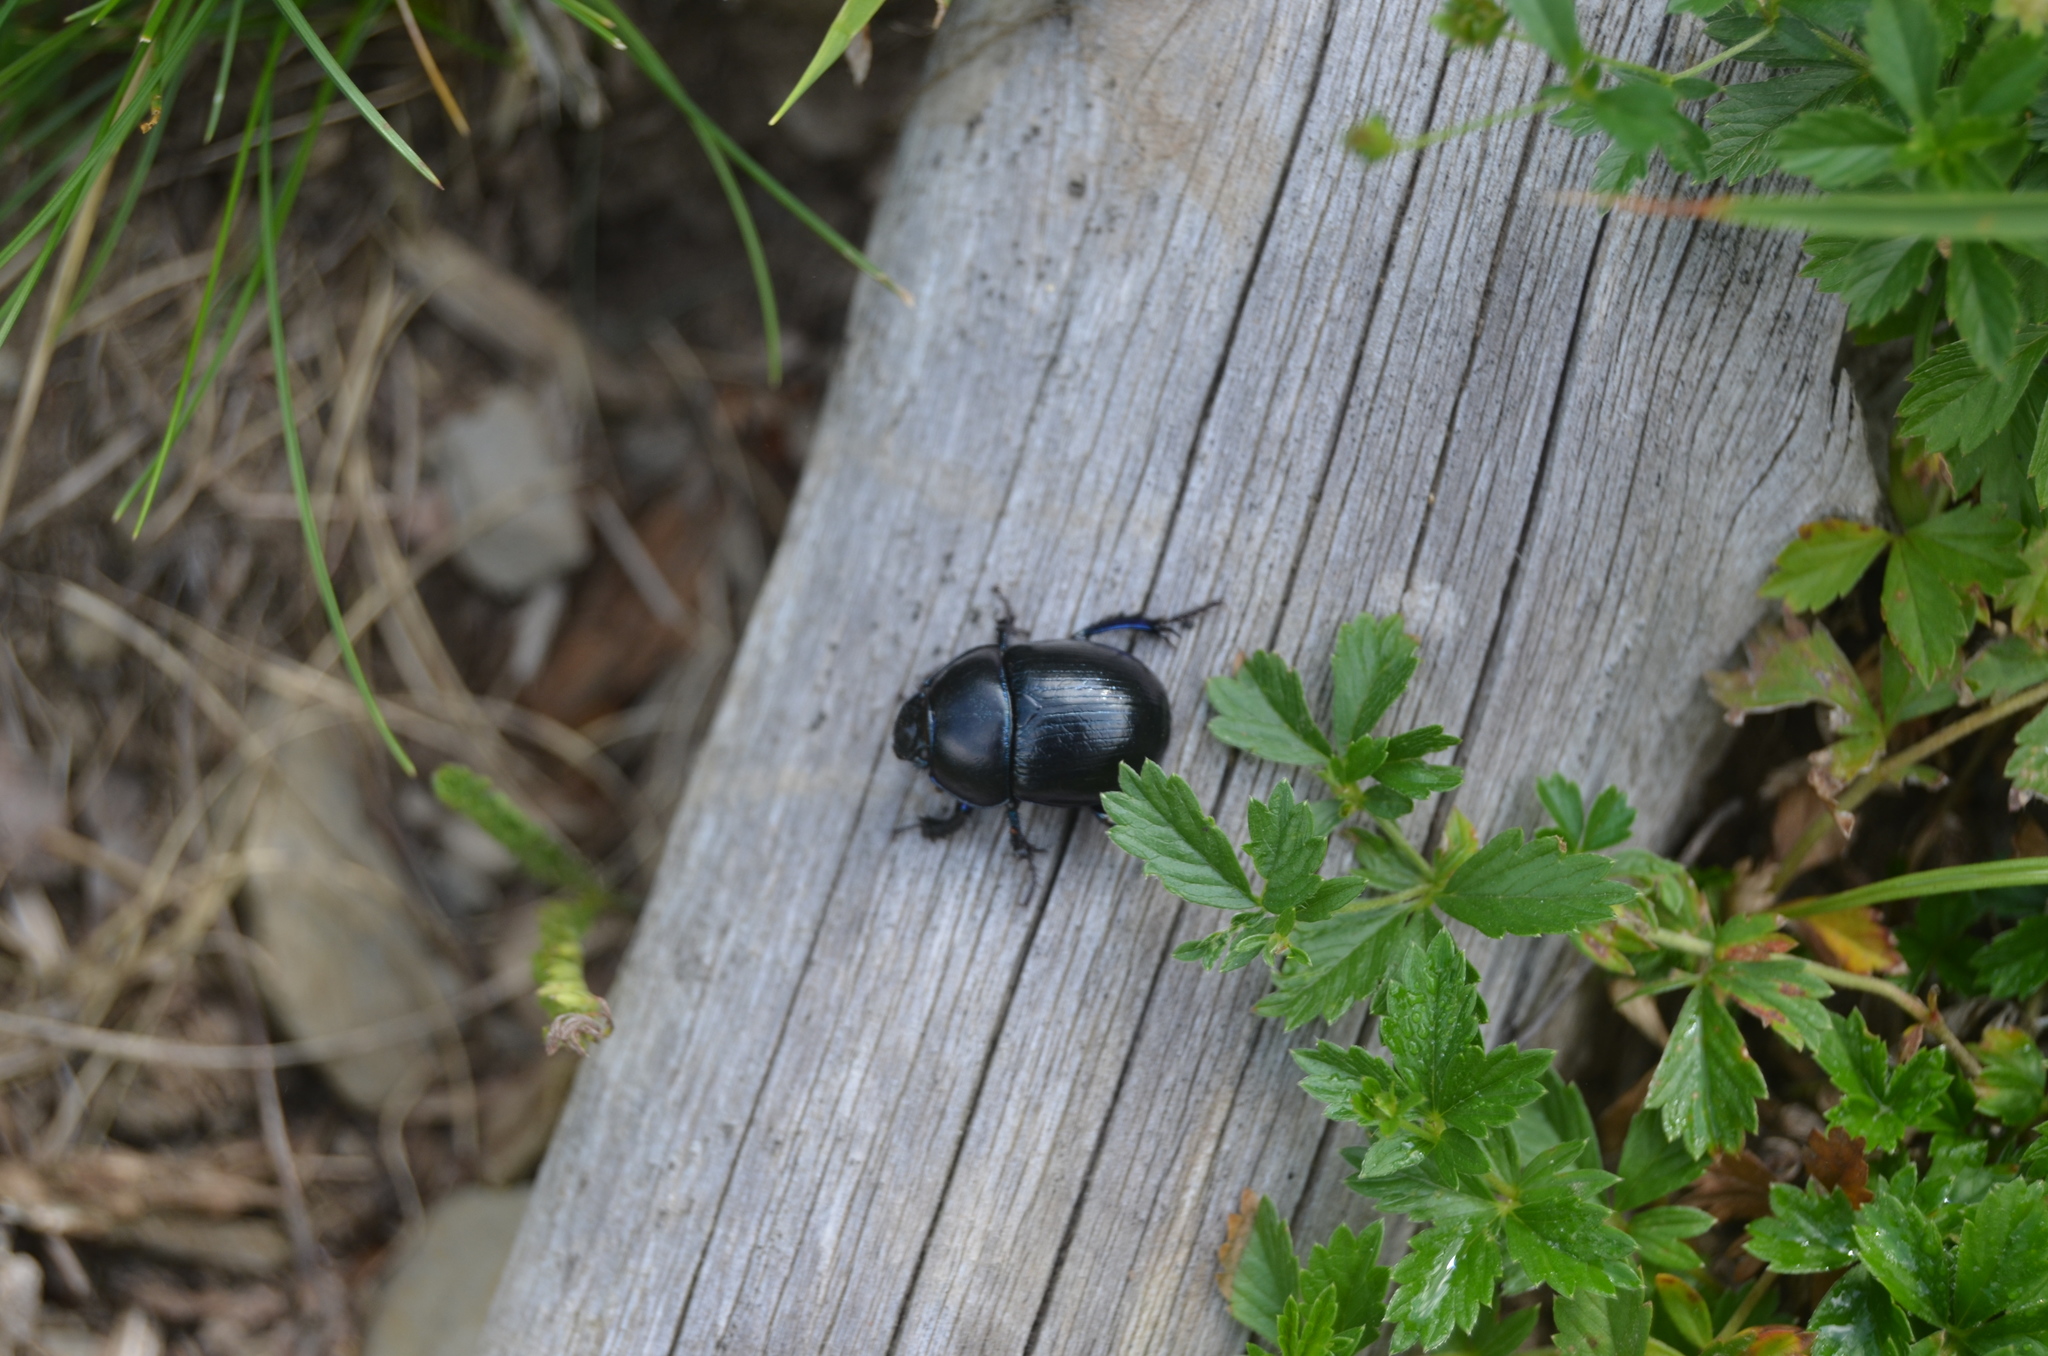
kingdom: Animalia
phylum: Arthropoda
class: Insecta
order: Coleoptera
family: Geotrupidae
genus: Anoplotrupes
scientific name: Anoplotrupes stercorosus
